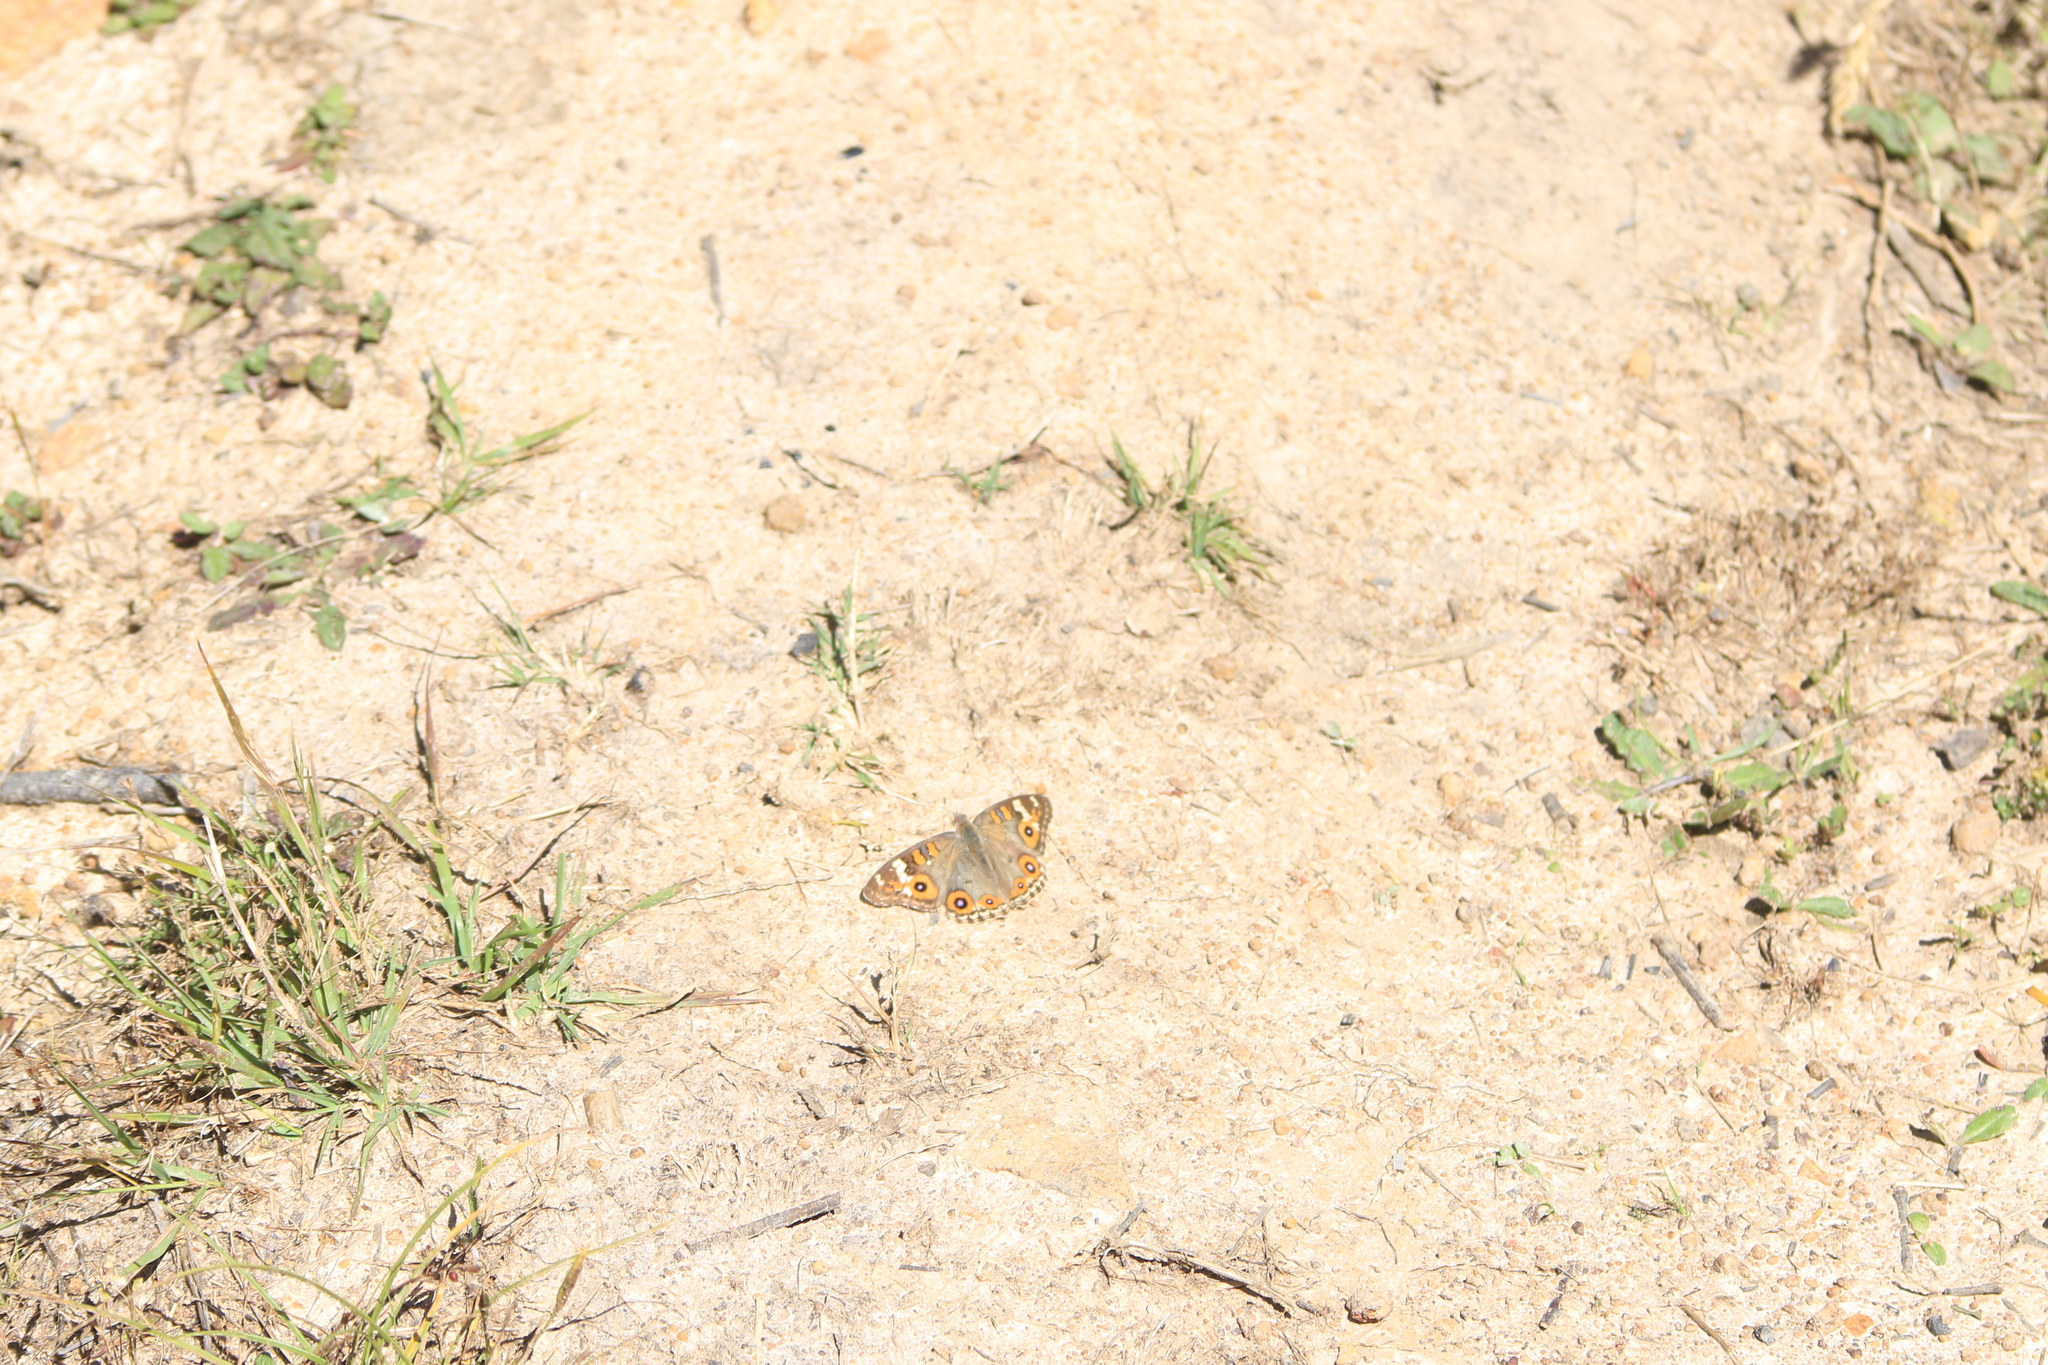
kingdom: Animalia
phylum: Arthropoda
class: Insecta
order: Lepidoptera
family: Nymphalidae
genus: Junonia
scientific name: Junonia villida
